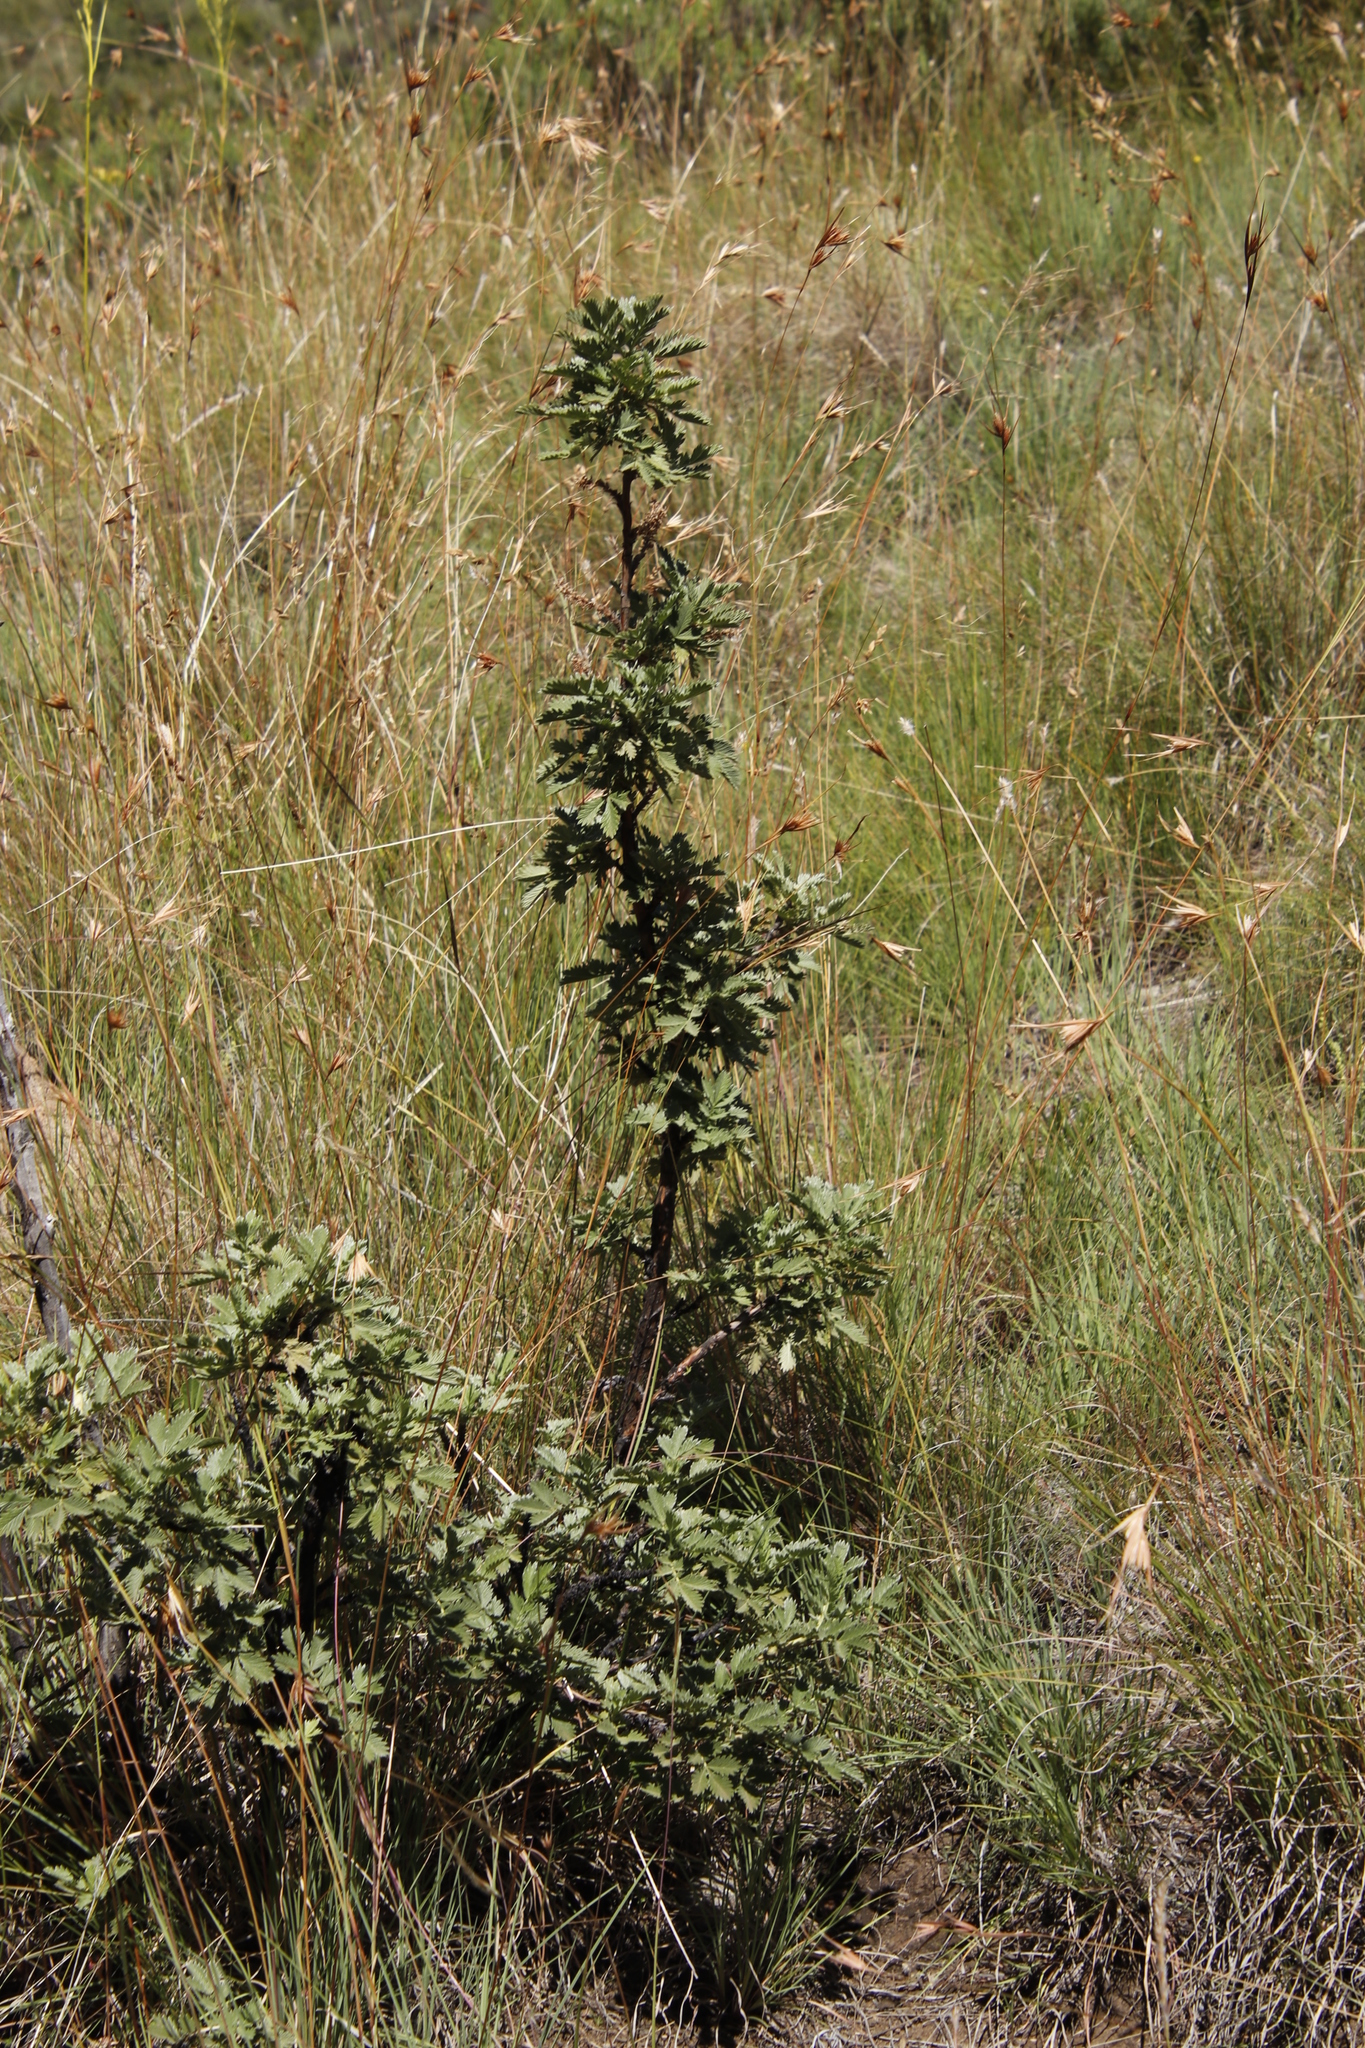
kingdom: Plantae
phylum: Tracheophyta
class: Magnoliopsida
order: Rosales
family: Rosaceae
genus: Leucosidea
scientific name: Leucosidea sericea
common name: Oldwood
